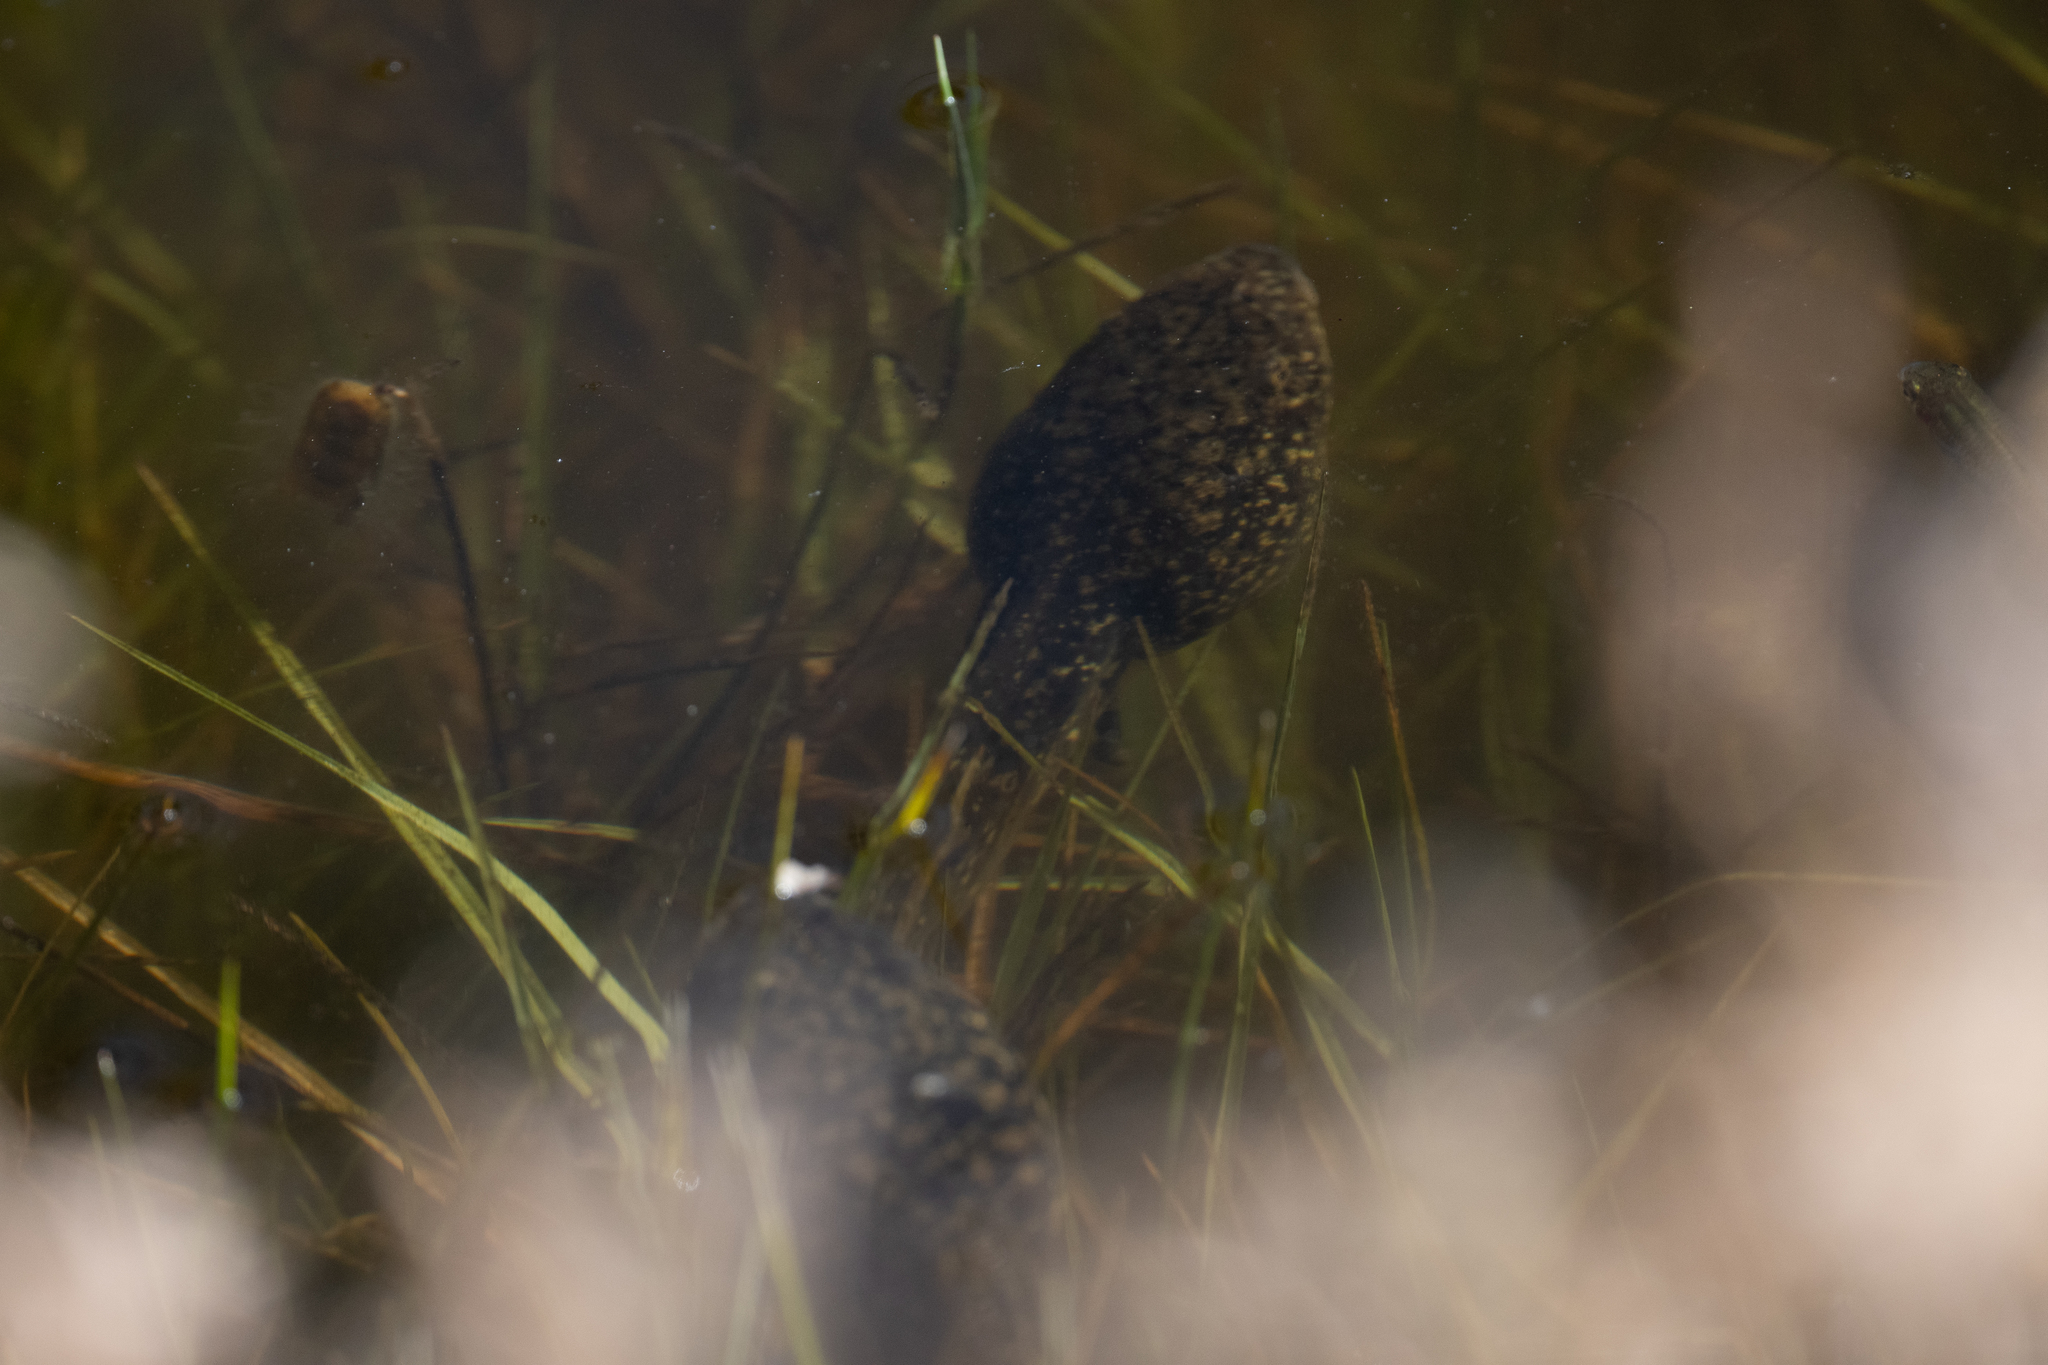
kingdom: Animalia
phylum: Chordata
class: Amphibia
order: Anura
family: Ranidae
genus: Lithobates
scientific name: Lithobates catesbeianus
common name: American bullfrog
